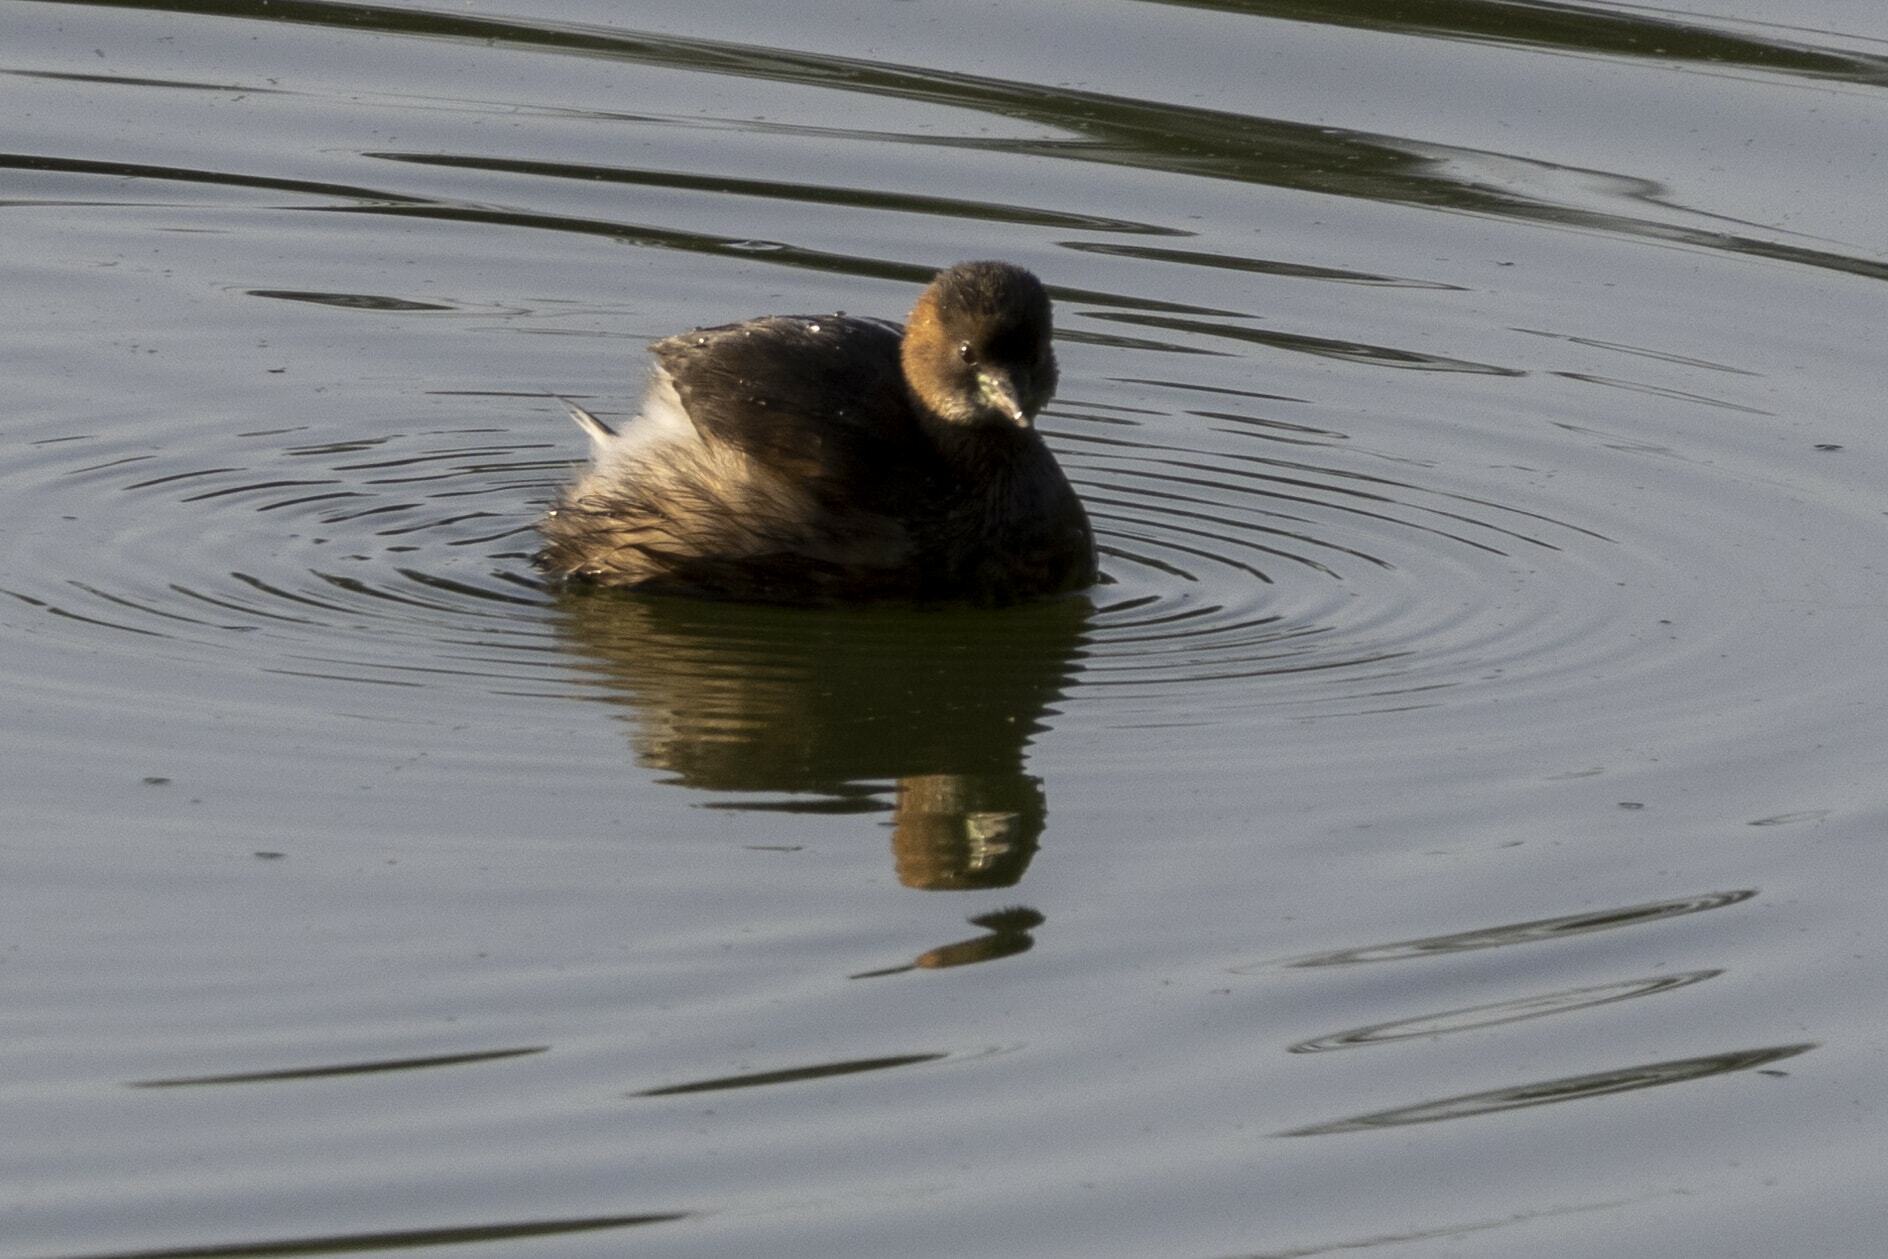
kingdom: Animalia
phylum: Chordata
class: Aves
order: Podicipediformes
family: Podicipedidae
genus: Tachybaptus
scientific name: Tachybaptus ruficollis
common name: Little grebe
